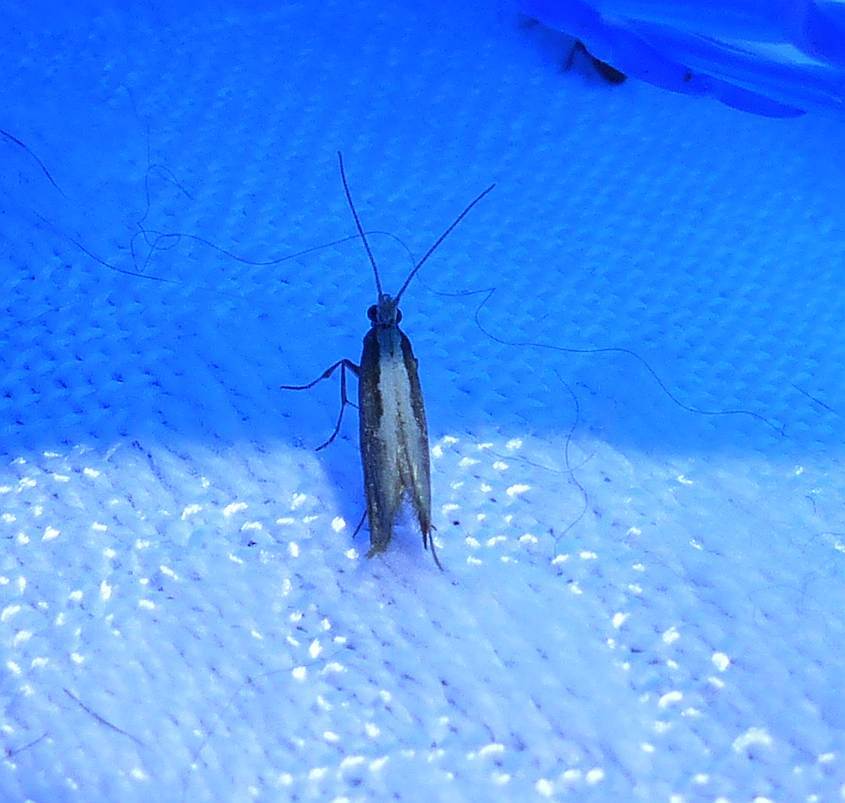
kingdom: Animalia
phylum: Arthropoda
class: Insecta
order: Lepidoptera
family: Plutellidae
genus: Plutella
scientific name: Plutella xylostella
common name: Diamond-back moth
